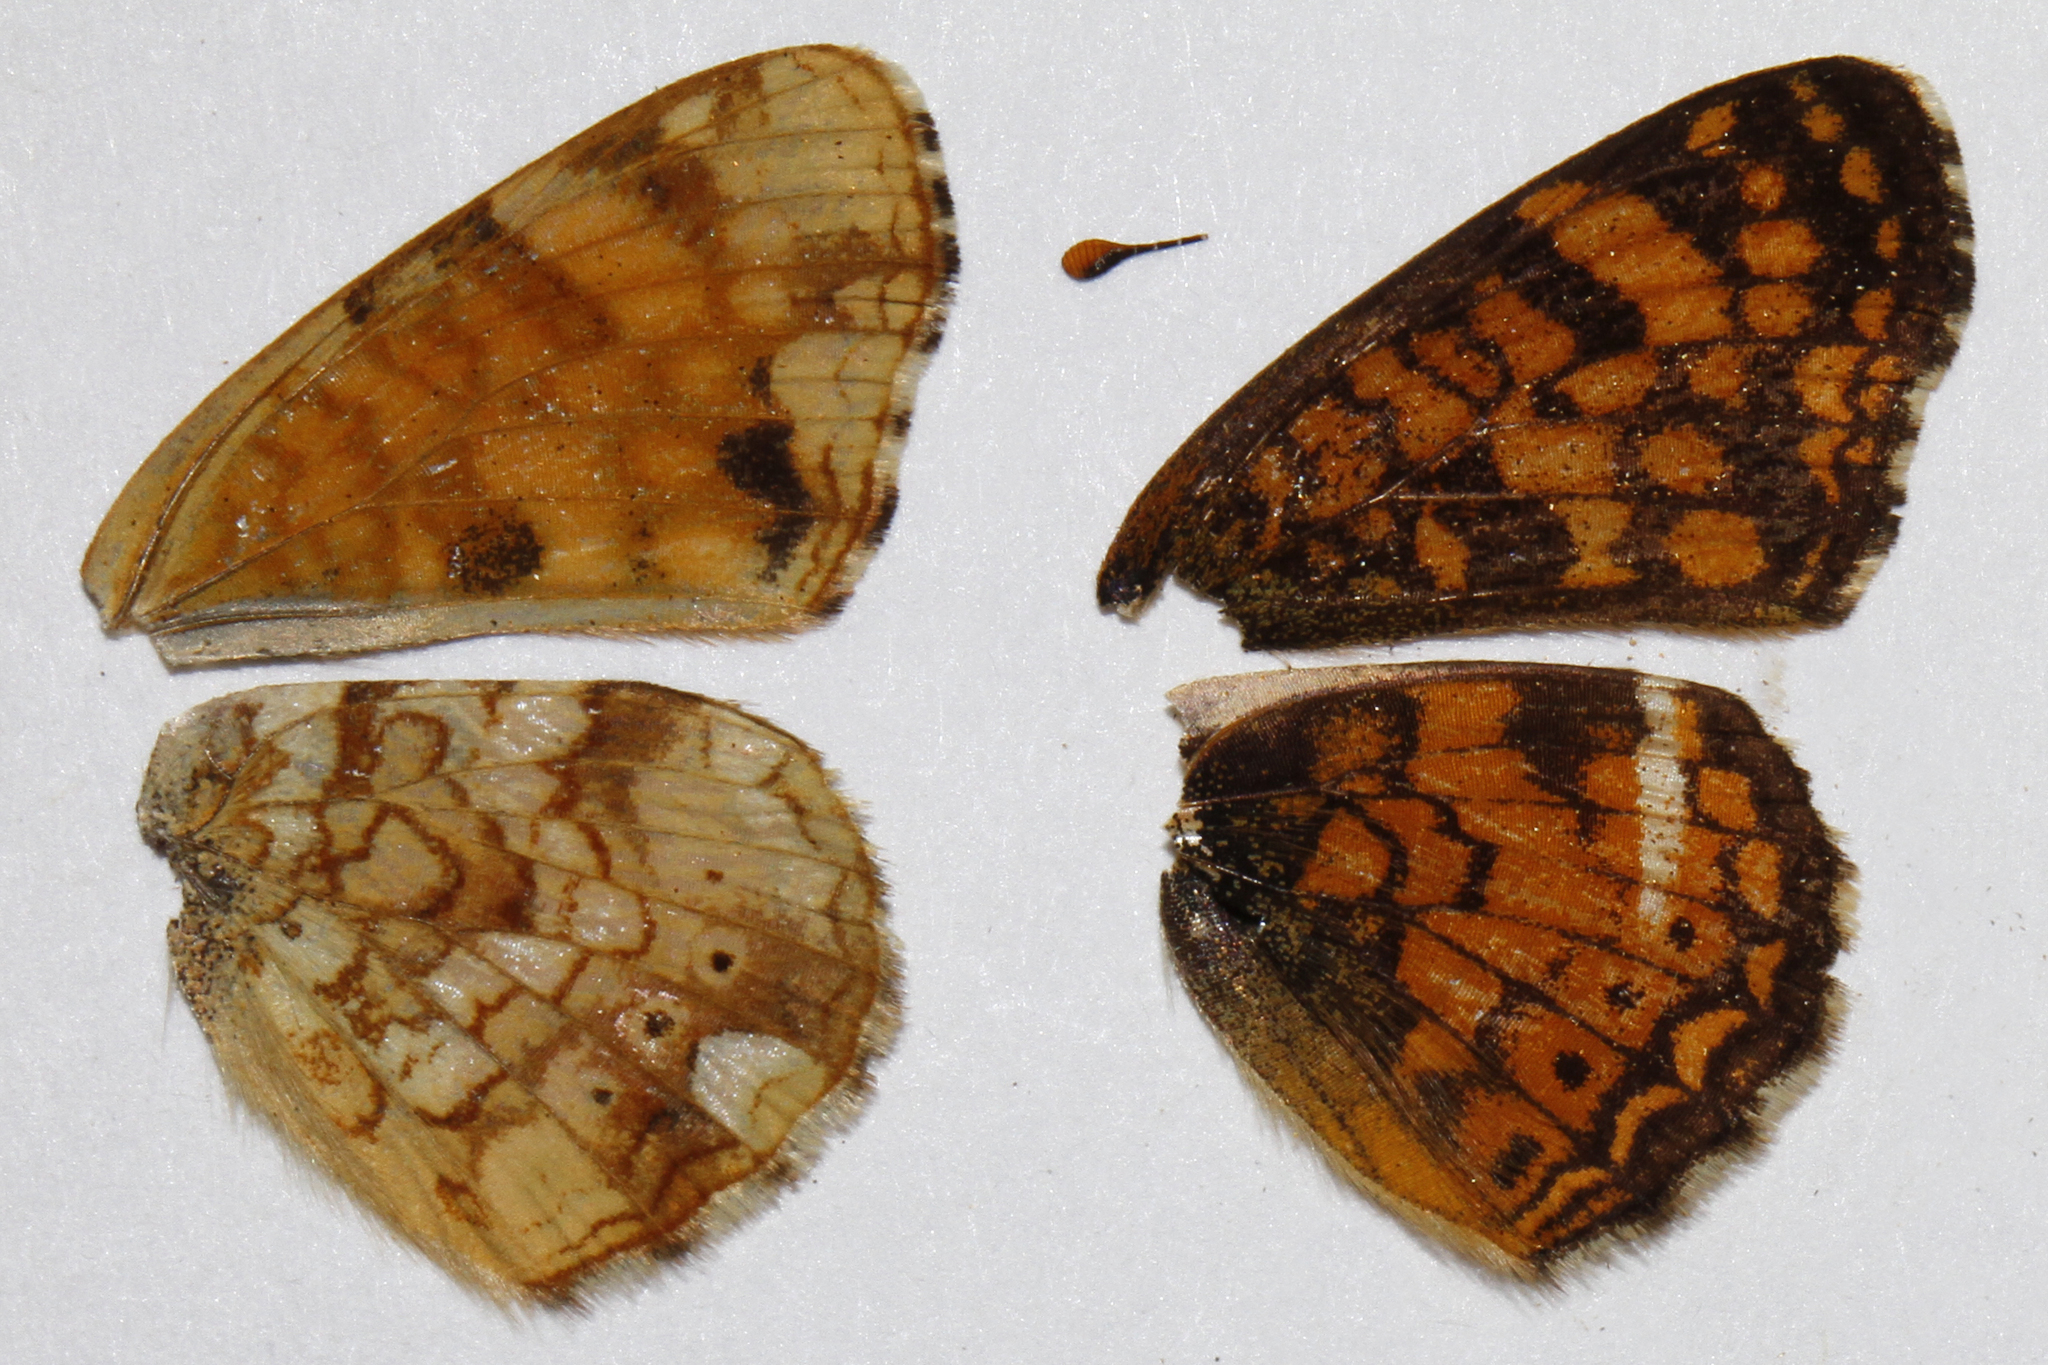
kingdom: Animalia
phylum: Arthropoda
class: Insecta
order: Lepidoptera
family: Nymphalidae
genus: Eresia
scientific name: Eresia aveyrona
